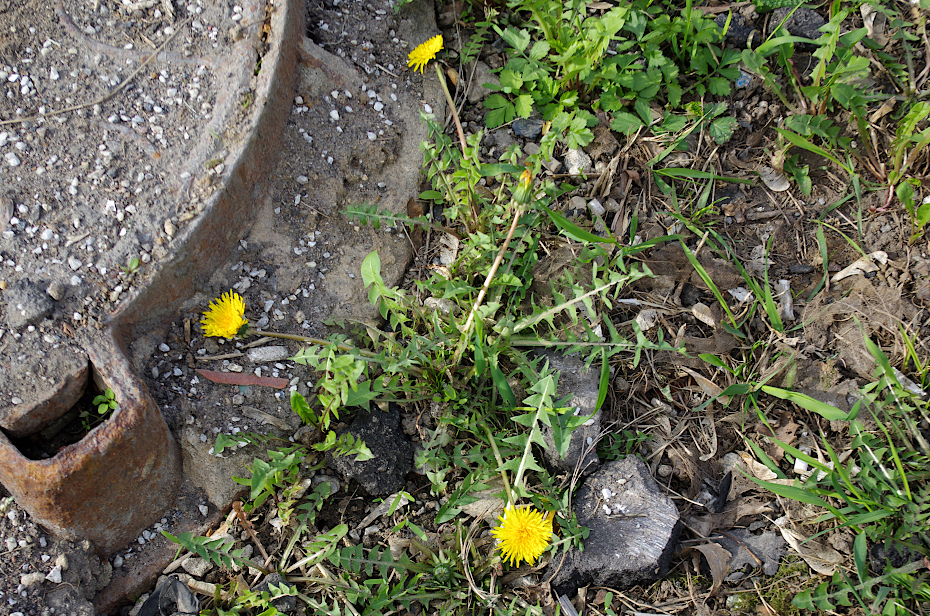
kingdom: Plantae
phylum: Tracheophyta
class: Magnoliopsida
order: Asterales
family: Asteraceae
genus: Taraxacum
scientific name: Taraxacum officinale
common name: Common dandelion
